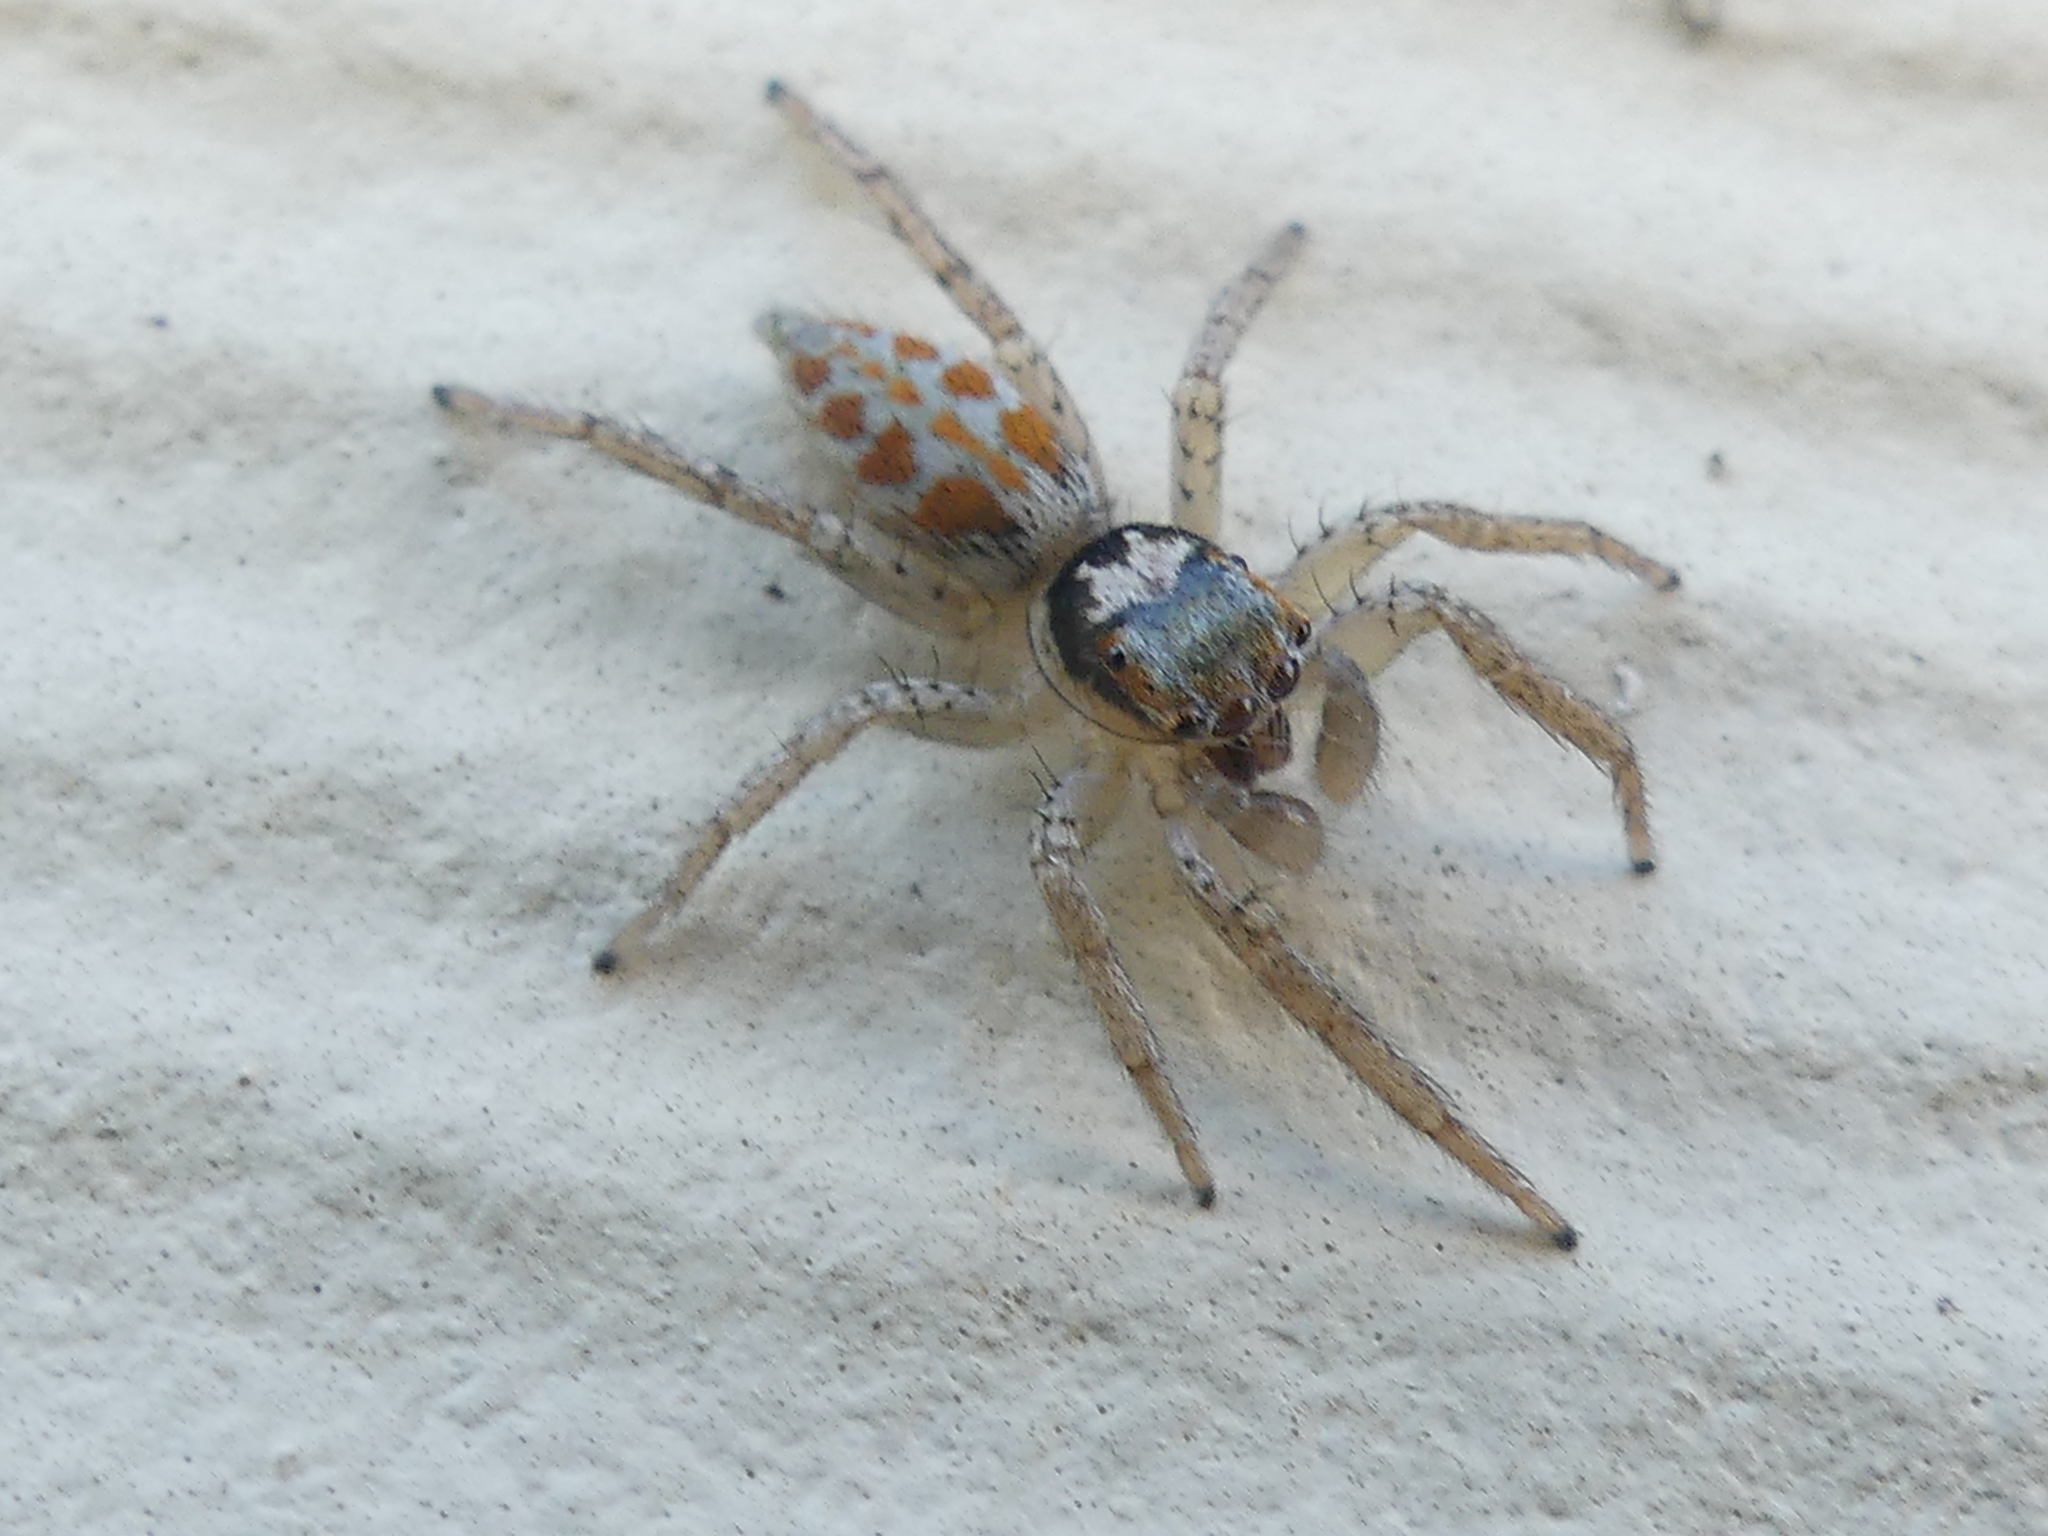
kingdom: Animalia
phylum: Arthropoda
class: Arachnida
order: Araneae
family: Salticidae
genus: Paramaevia
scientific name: Paramaevia poultoni
